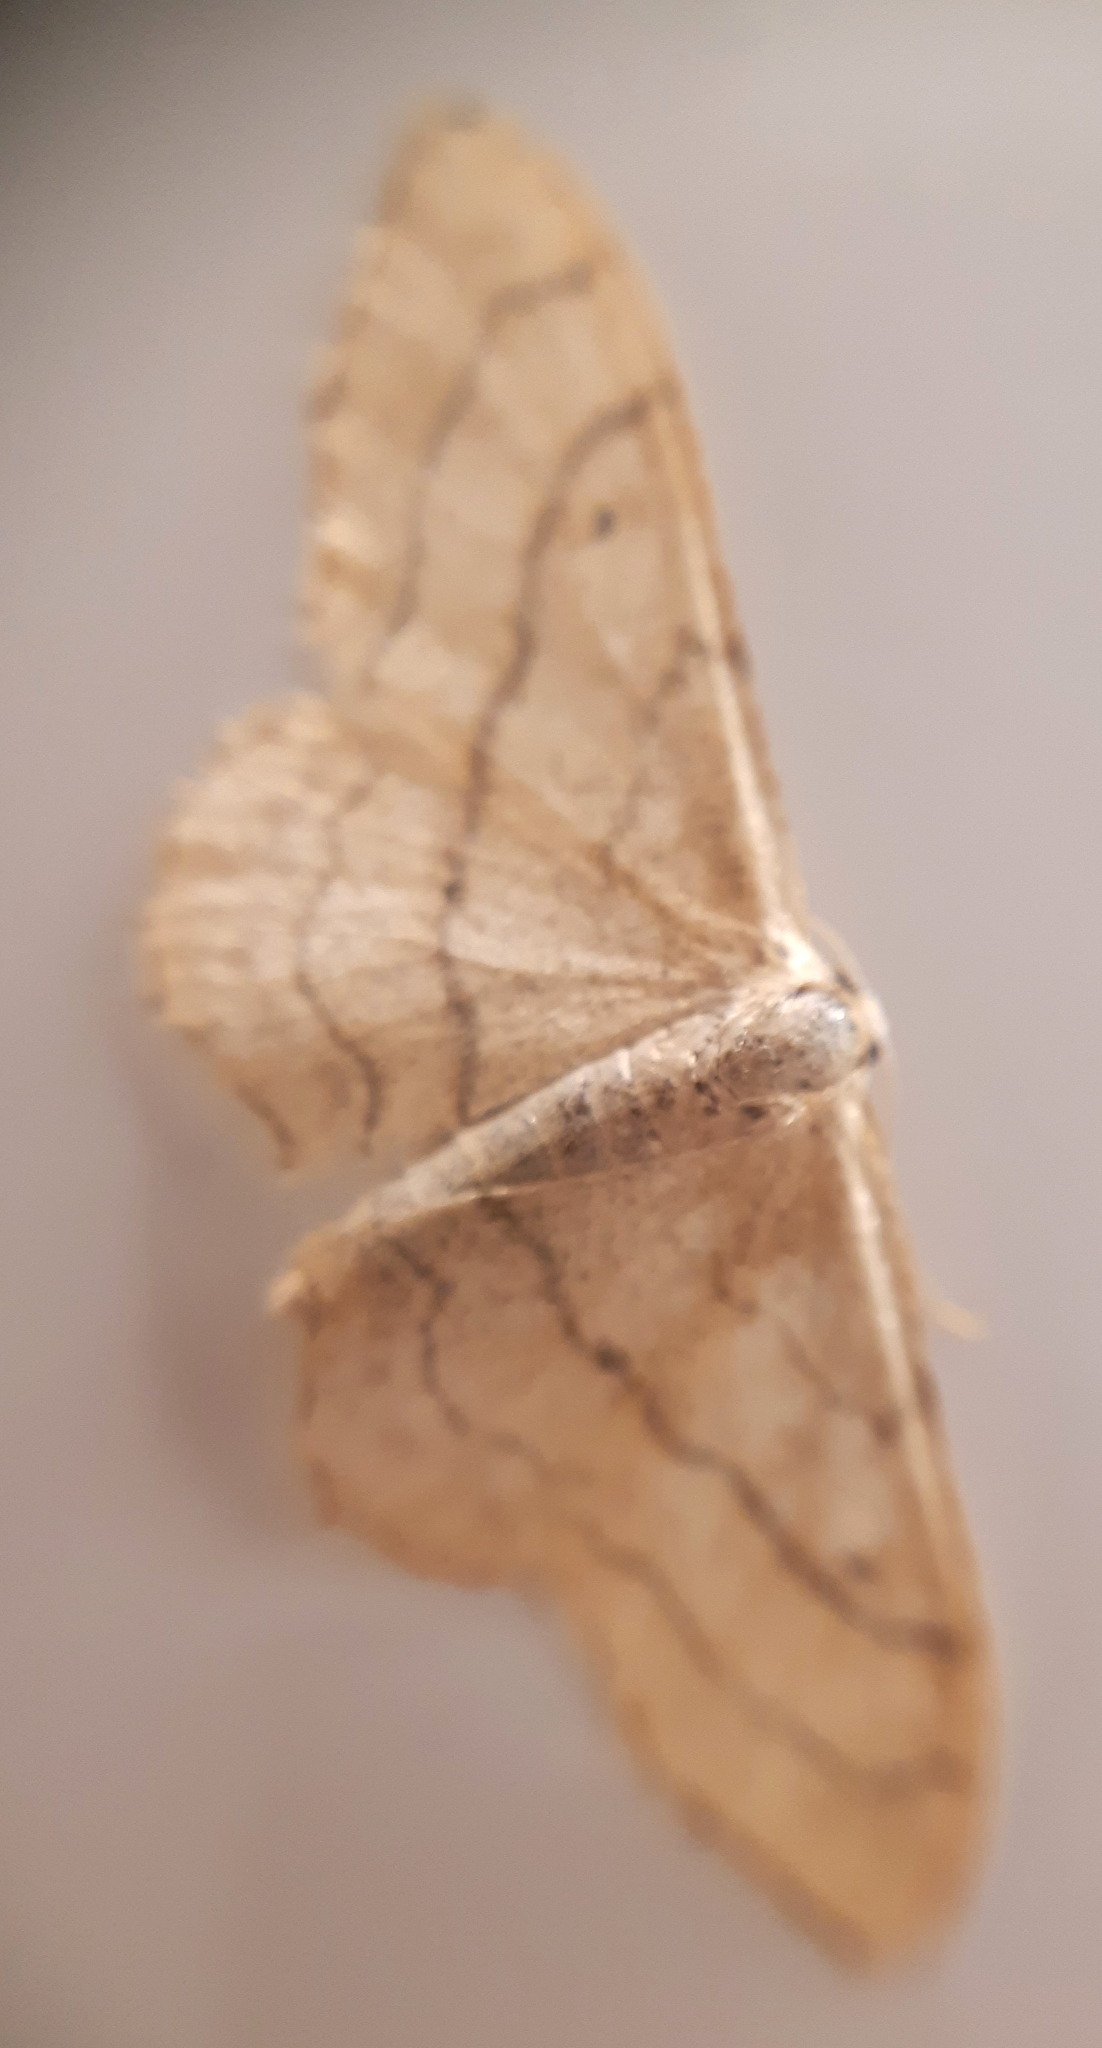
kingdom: Animalia
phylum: Arthropoda
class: Insecta
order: Lepidoptera
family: Geometridae
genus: Idaea
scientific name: Idaea aversata
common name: Riband wave
